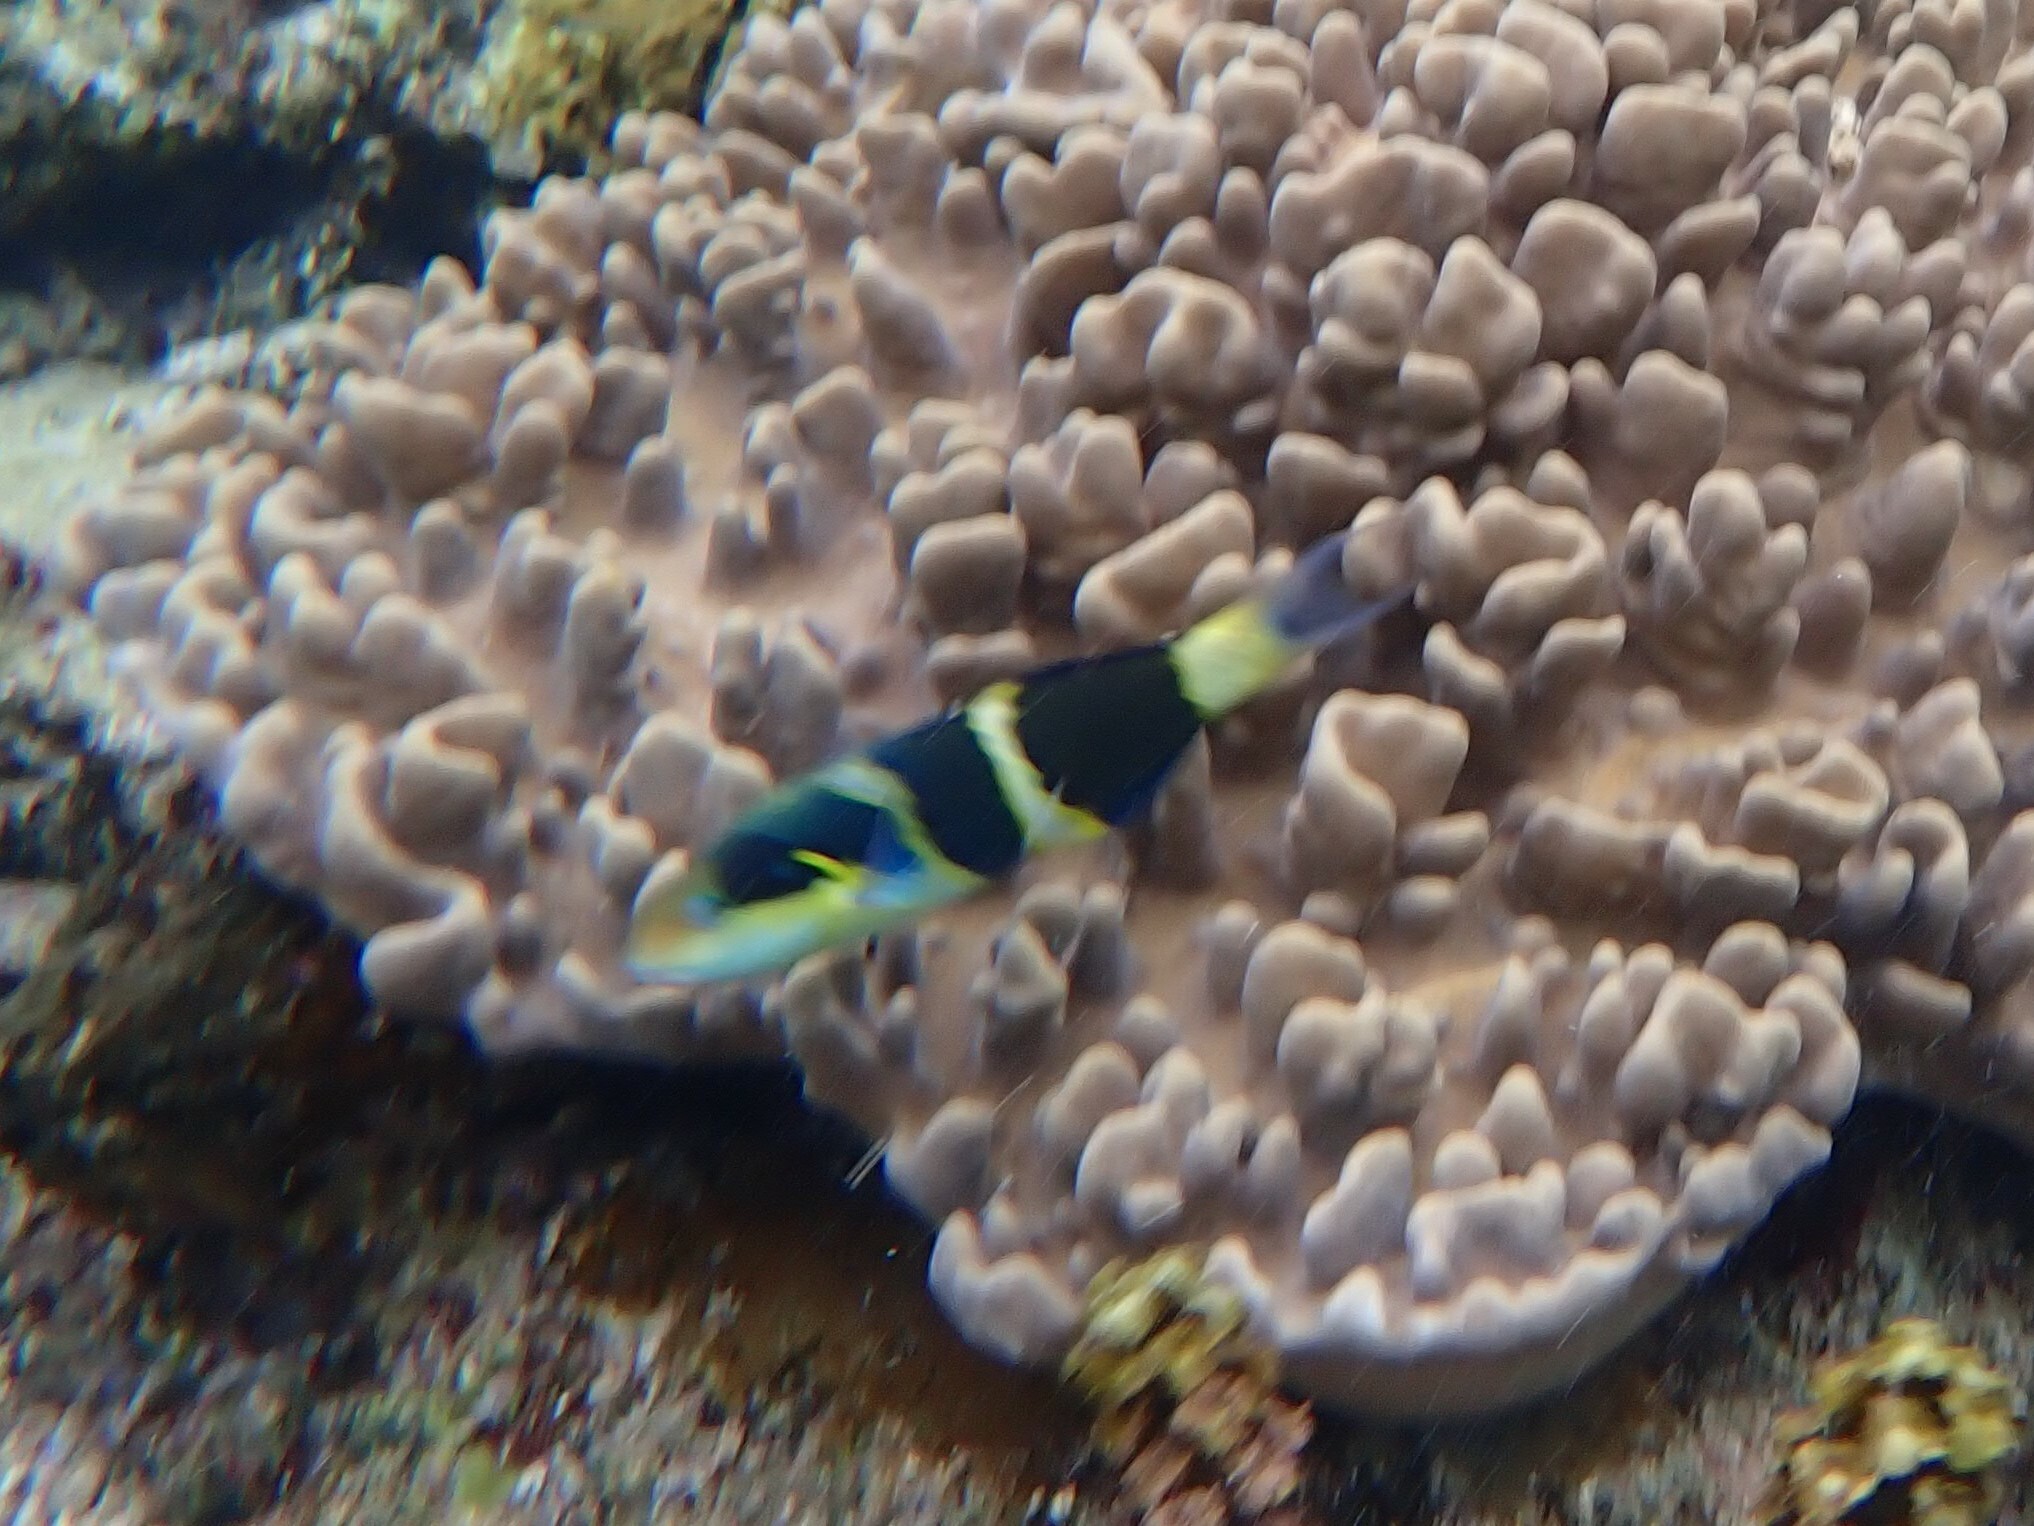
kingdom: Animalia
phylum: Chordata
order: Perciformes
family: Labridae
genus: Thalassoma
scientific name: Thalassoma nigrofasciatum
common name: Black-barred wrasse
